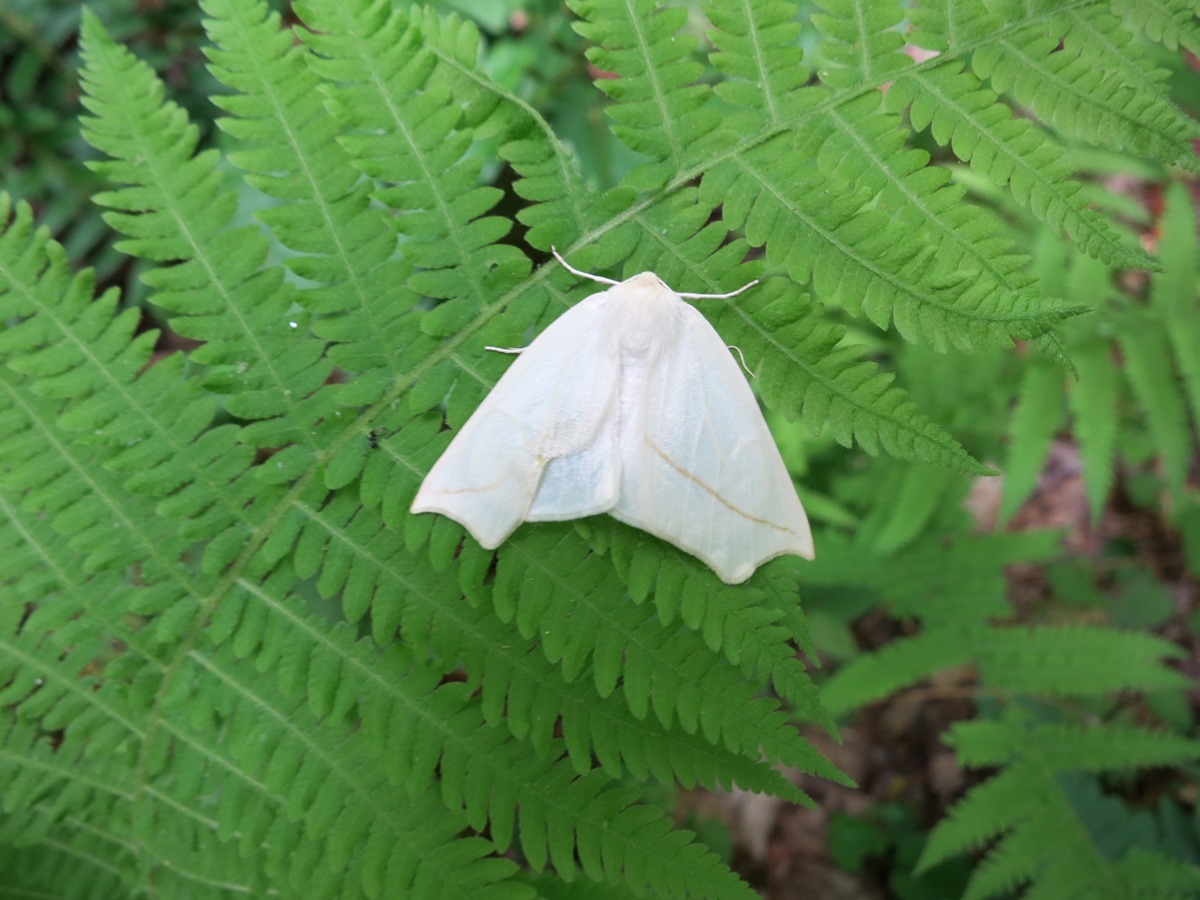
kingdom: Animalia
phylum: Arthropoda
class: Insecta
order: Lepidoptera
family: Geometridae
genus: Tetracis
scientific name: Tetracis cachexiata
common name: White slant-line
